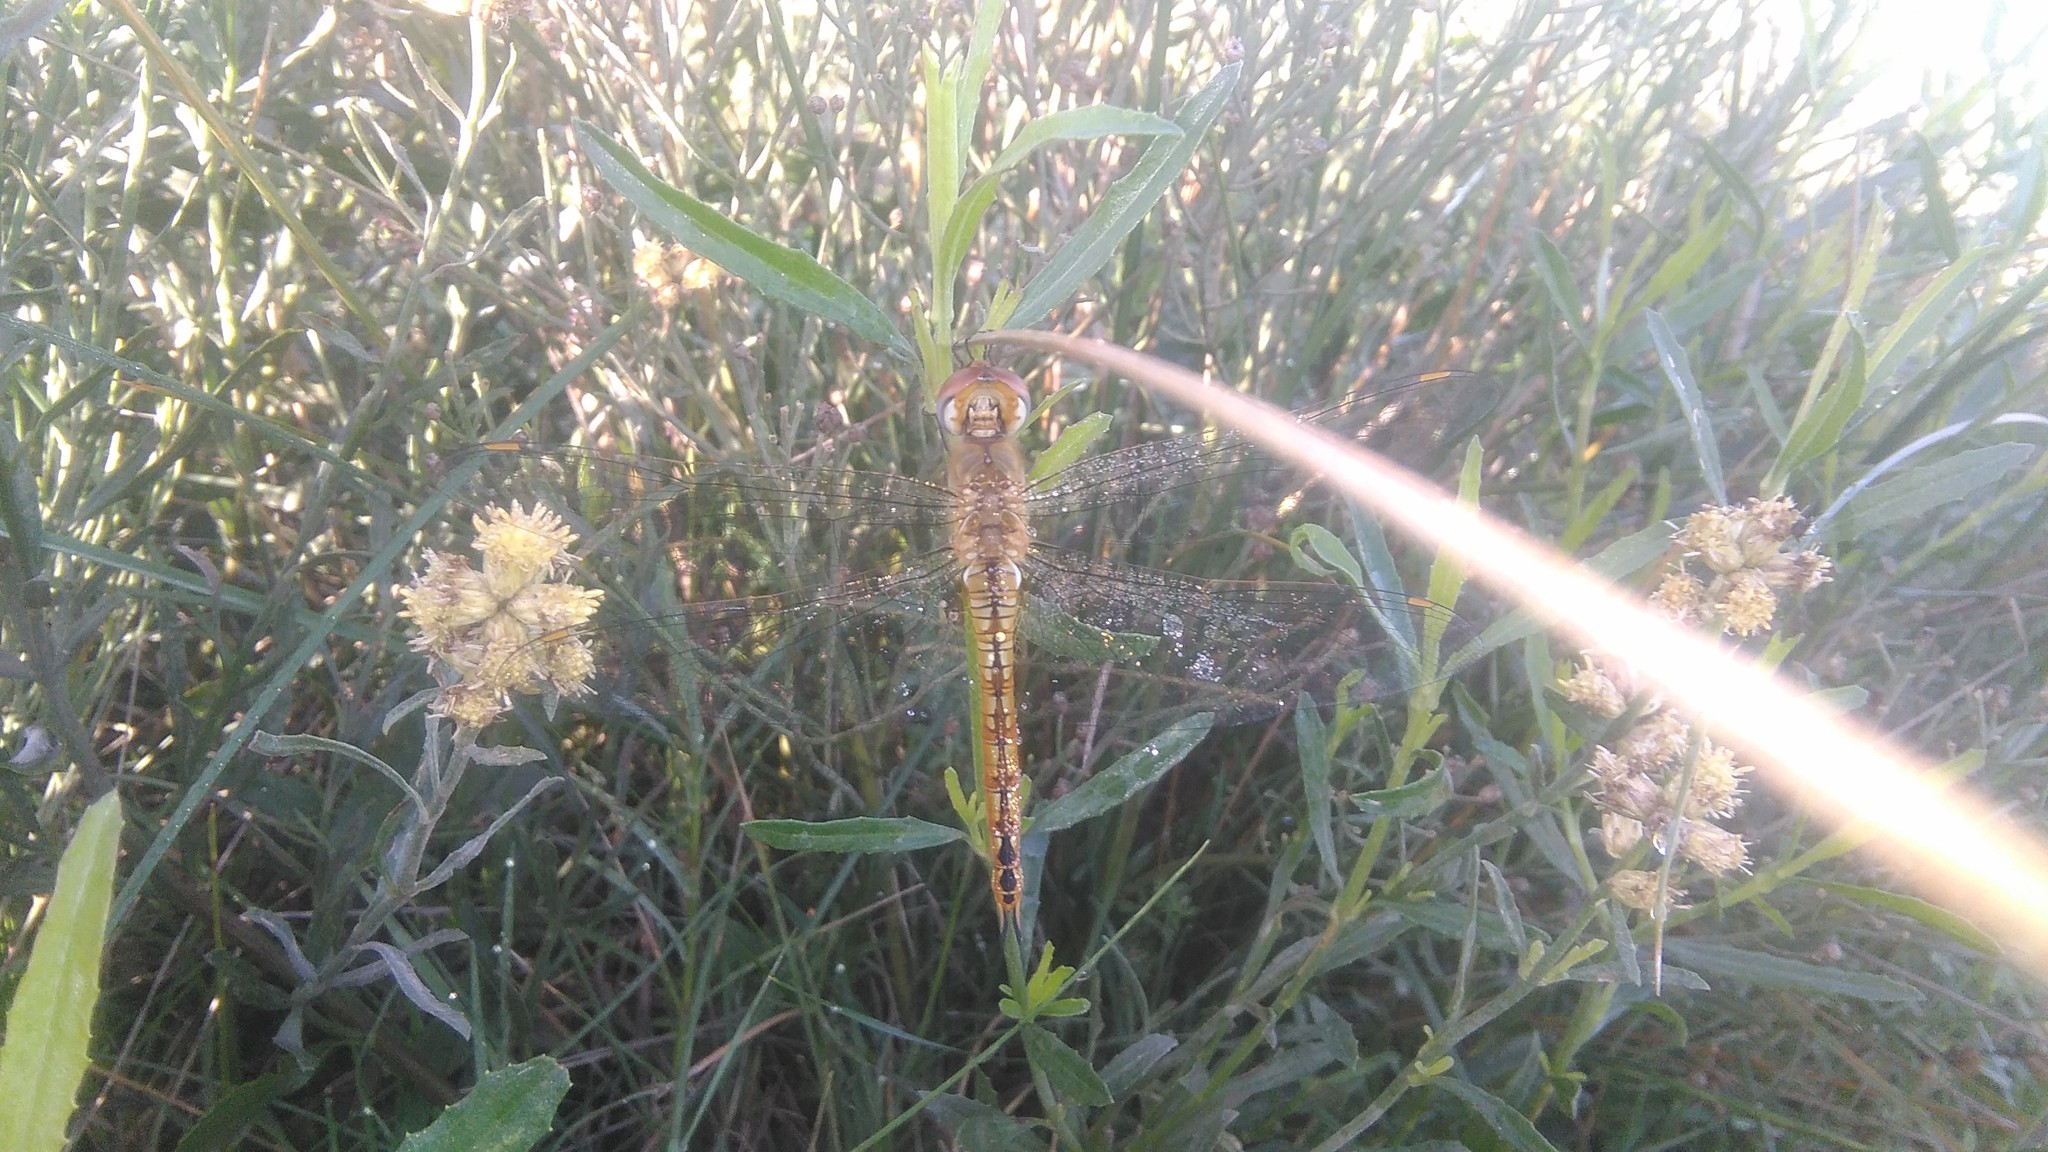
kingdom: Animalia
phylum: Arthropoda
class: Insecta
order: Odonata
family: Libellulidae
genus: Pantala
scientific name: Pantala flavescens
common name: Wandering glider
